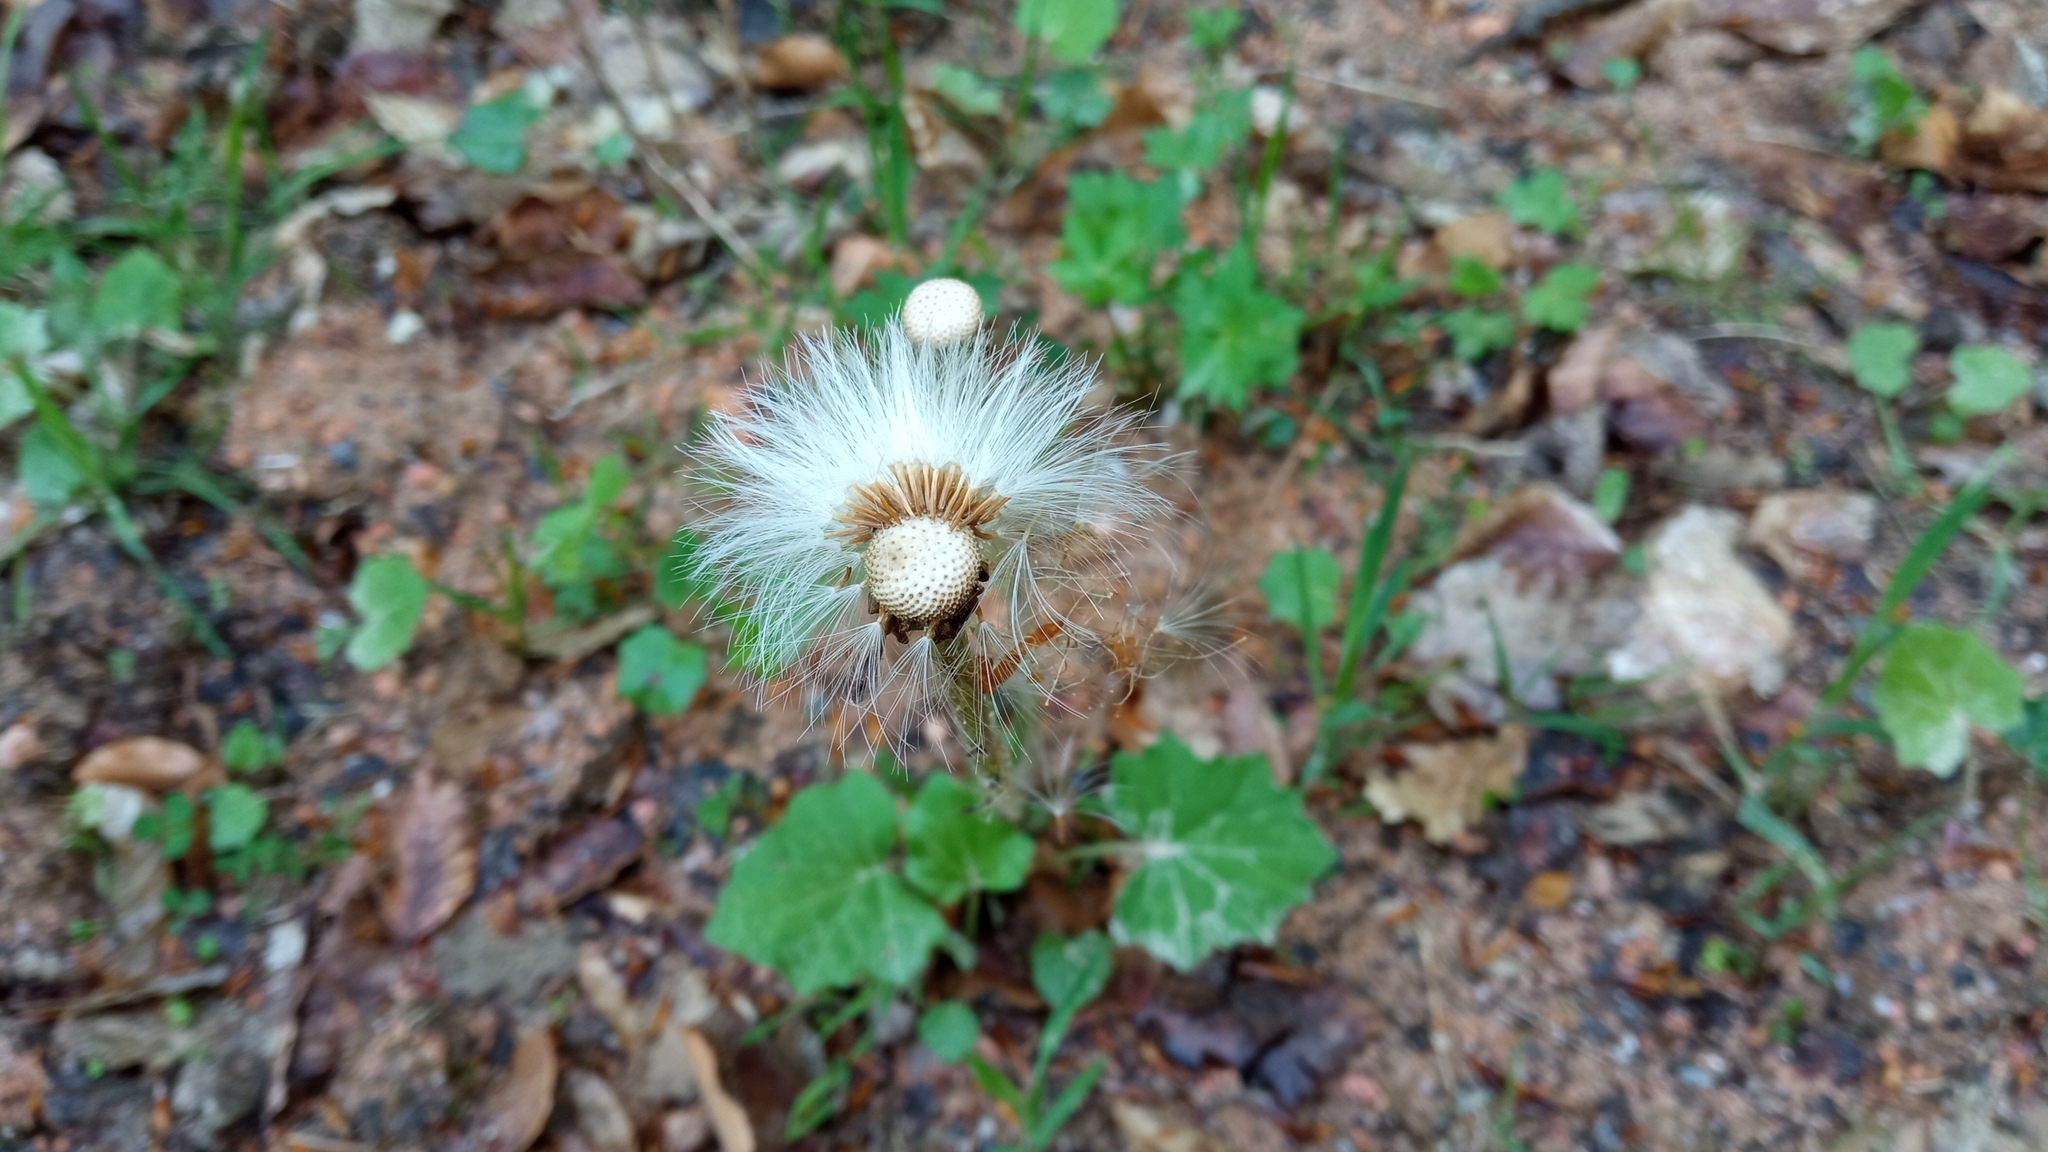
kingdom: Plantae
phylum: Tracheophyta
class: Magnoliopsida
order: Asterales
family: Asteraceae
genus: Tussilago
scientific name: Tussilago farfara
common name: Coltsfoot
